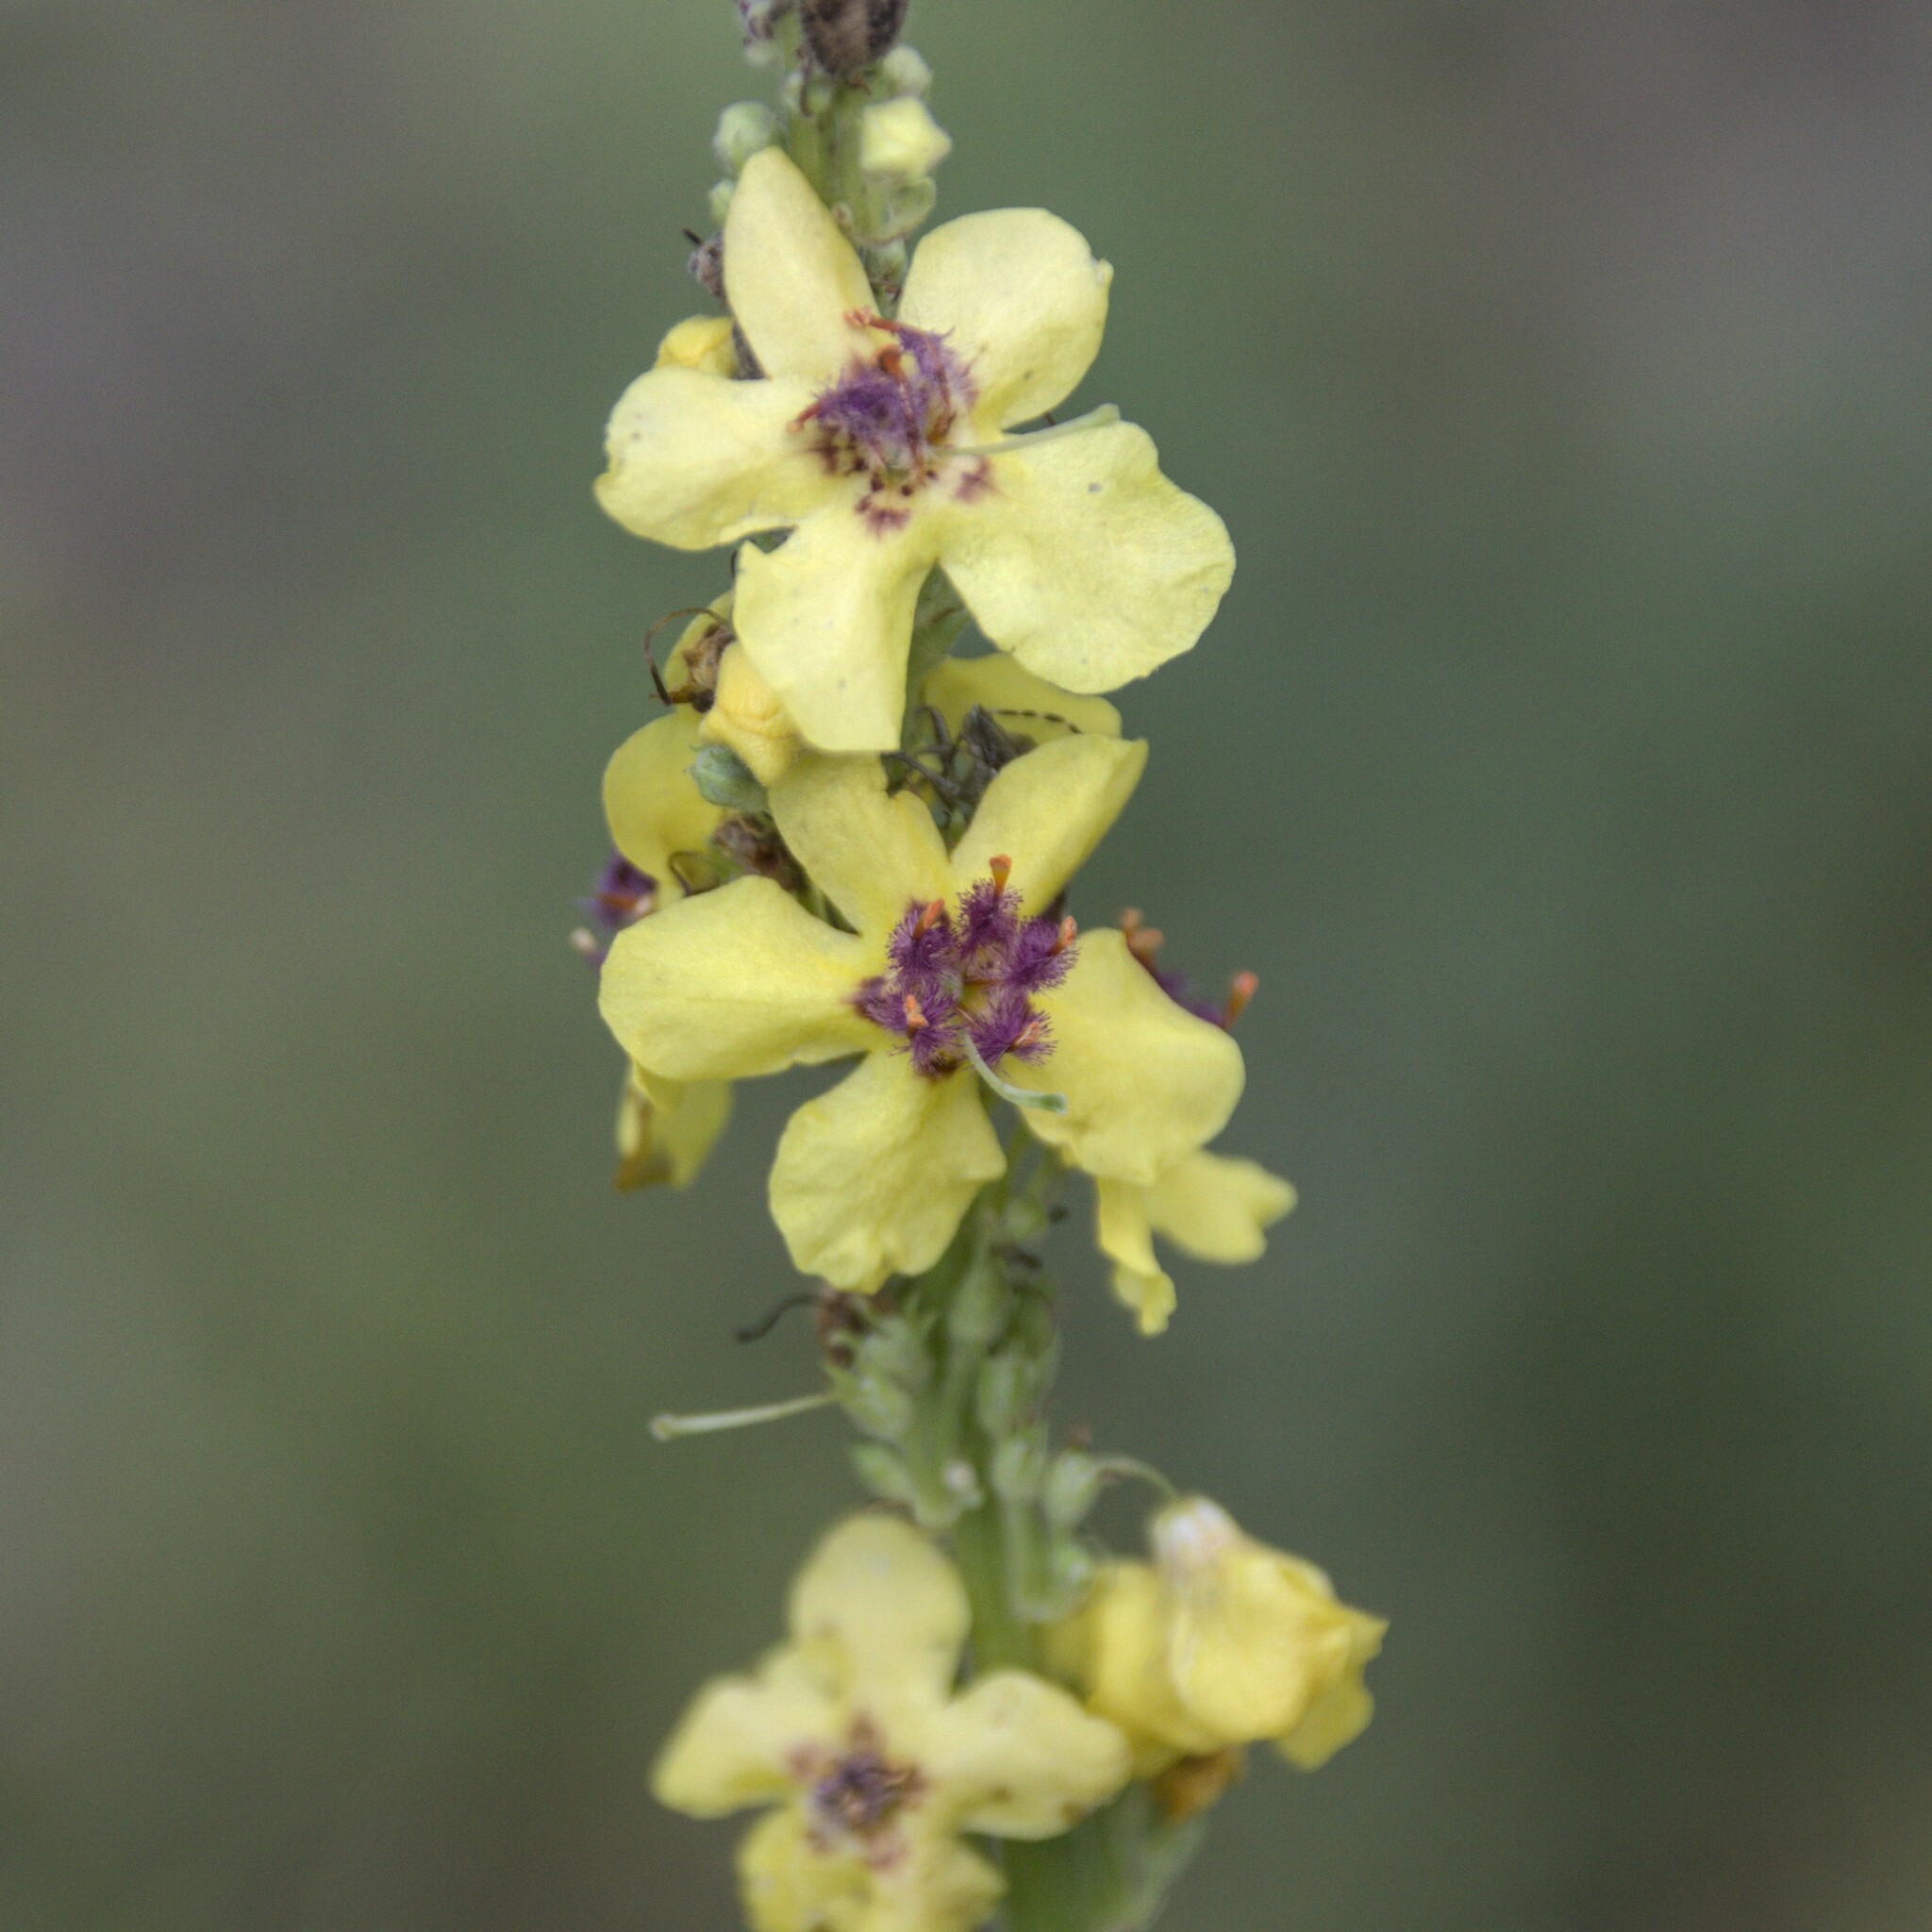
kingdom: Plantae
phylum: Tracheophyta
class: Magnoliopsida
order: Lamiales
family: Scrophulariaceae
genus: Verbascum
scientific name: Verbascum nigrum
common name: Dark mullein
